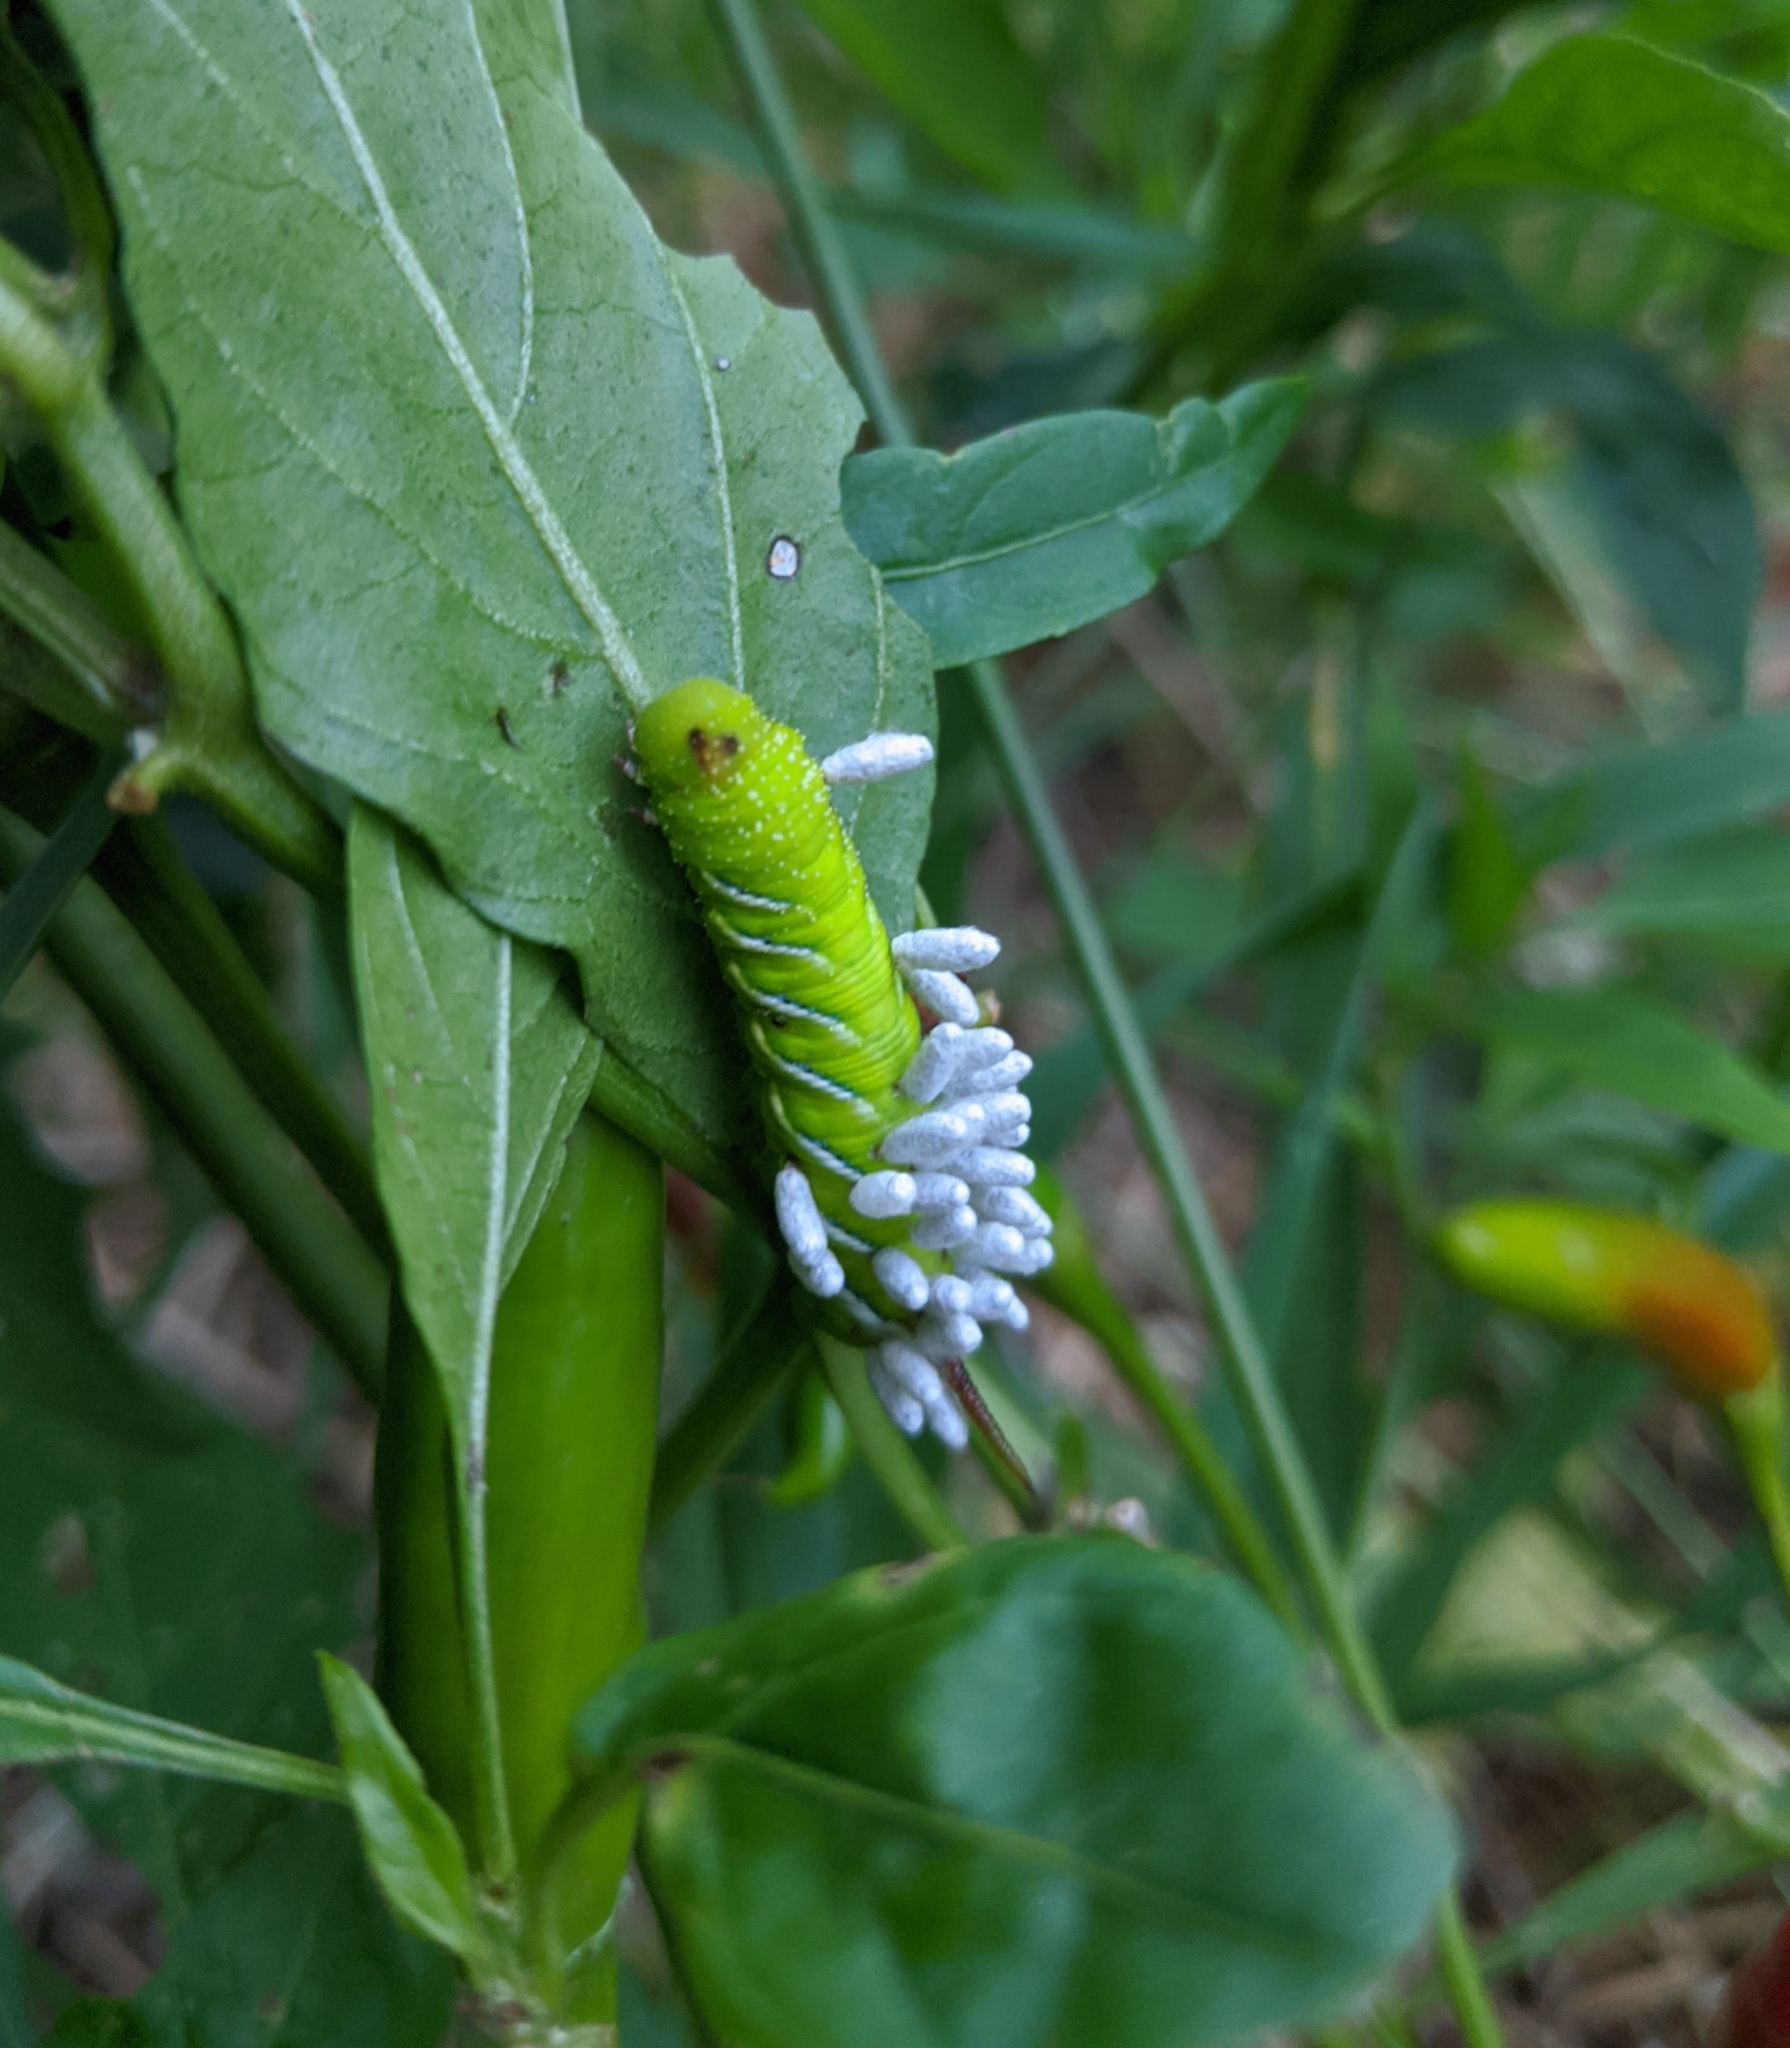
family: Polydnaviriformidae
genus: Bracoviriform
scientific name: Bracoviriform congregatae
